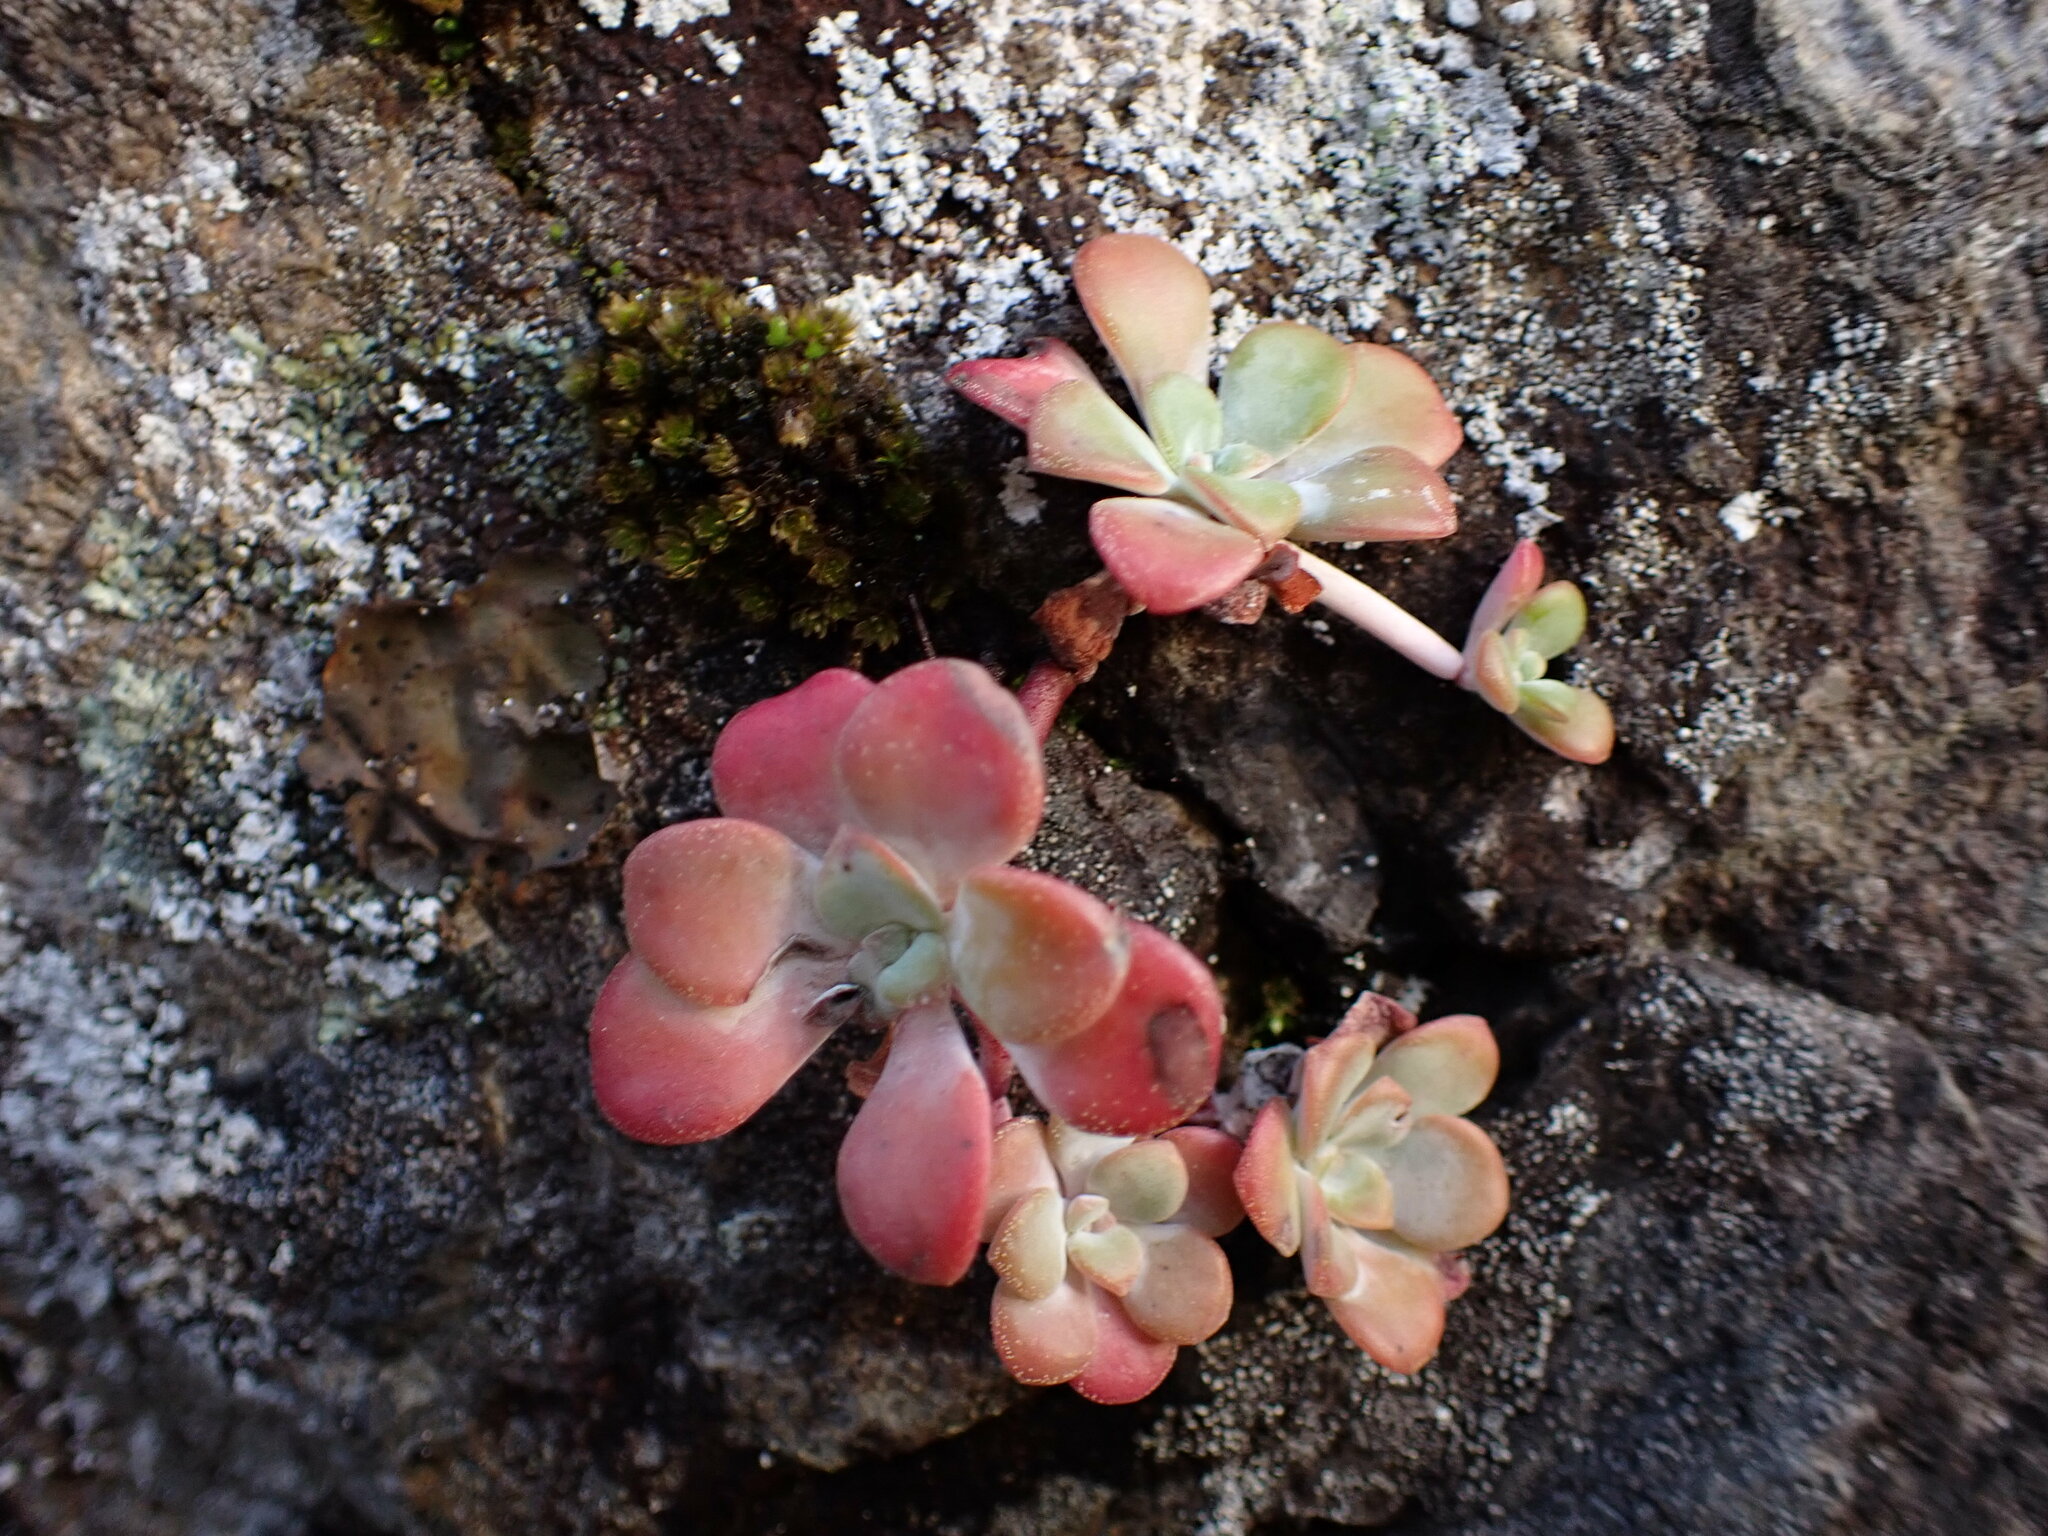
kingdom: Plantae
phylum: Tracheophyta
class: Magnoliopsida
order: Saxifragales
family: Crassulaceae
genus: Sedum
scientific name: Sedum spathulifolium
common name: Colorado stonecrop
